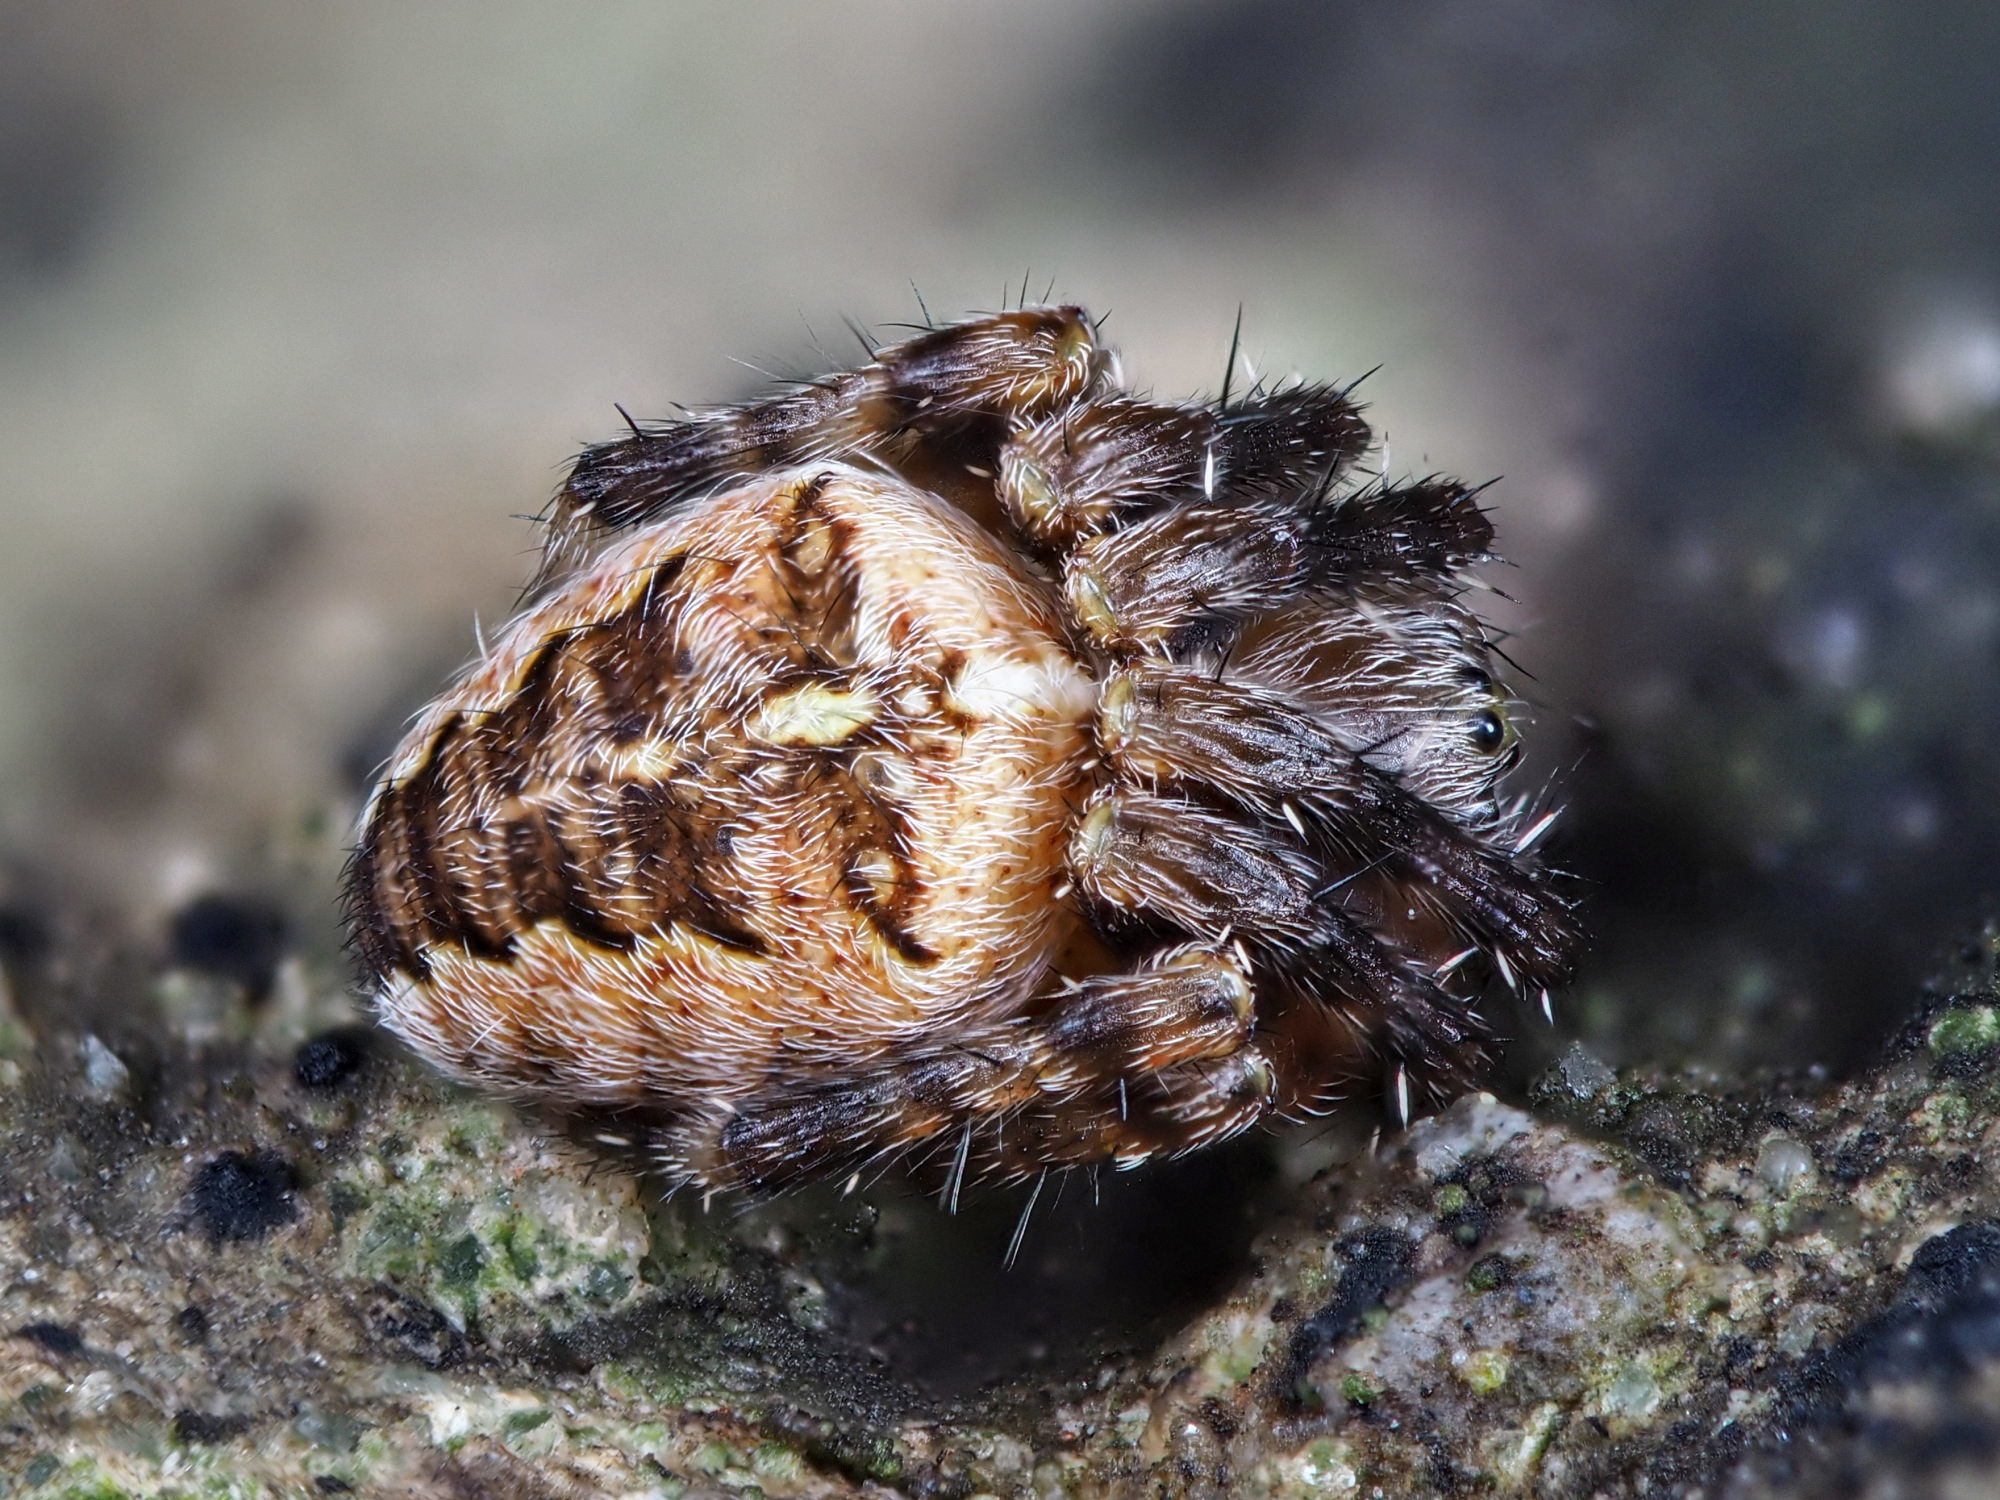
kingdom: Animalia
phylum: Arthropoda
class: Arachnida
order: Araneae
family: Araneidae
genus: Araneus
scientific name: Araneus diadematus
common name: Cross orbweaver
